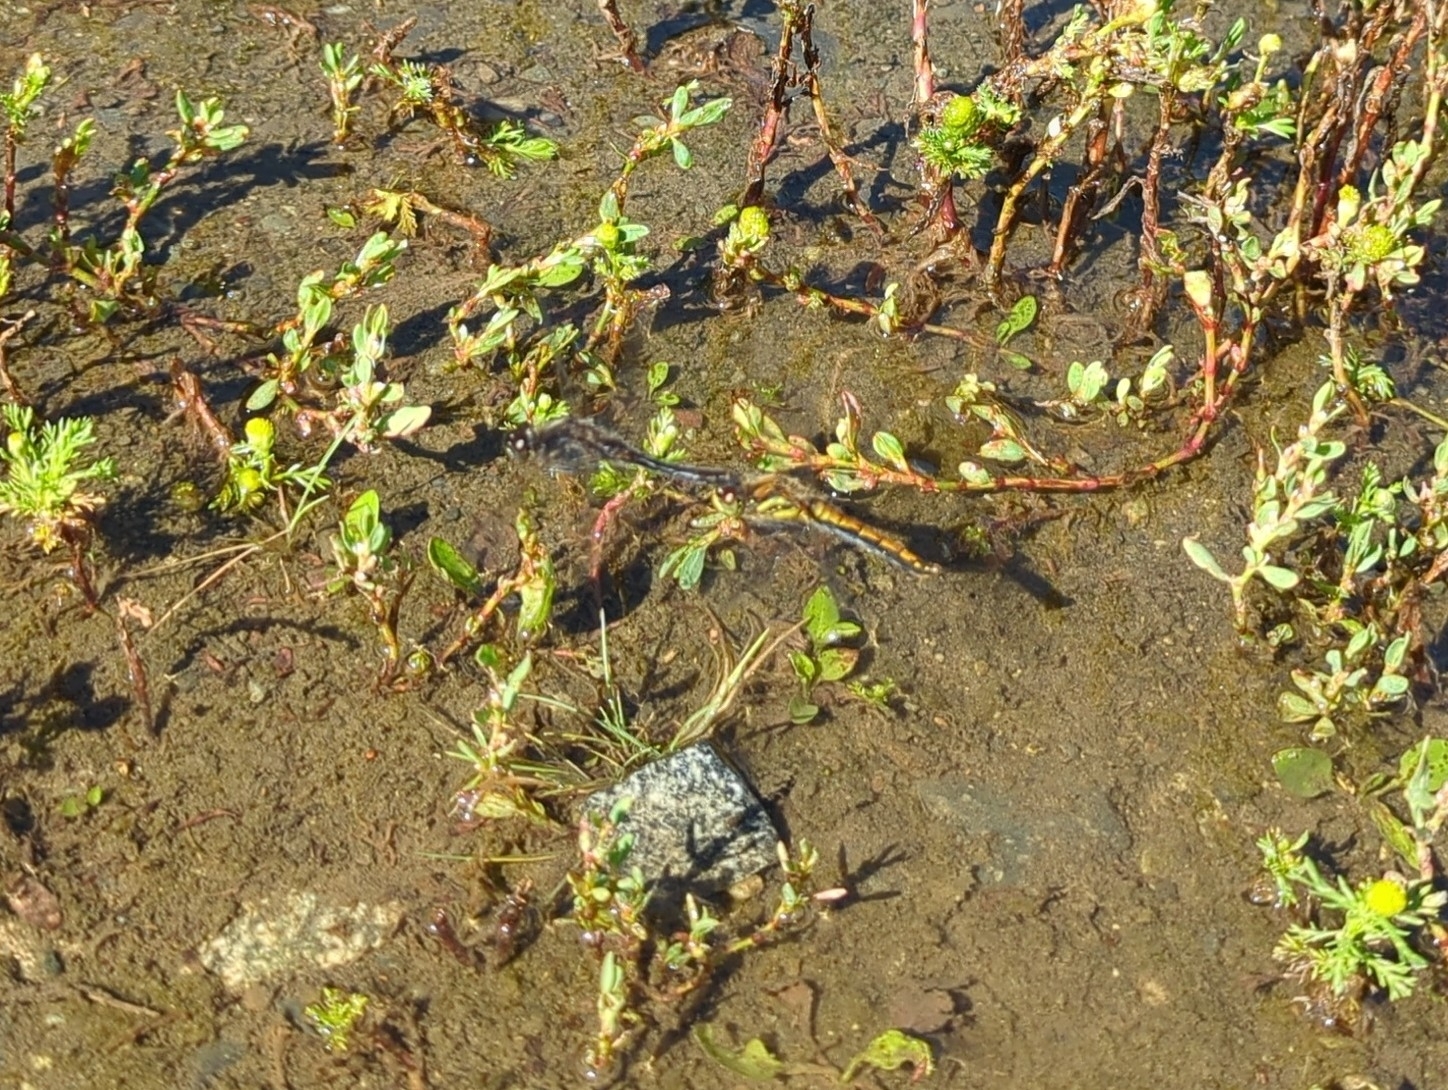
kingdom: Animalia
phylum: Arthropoda
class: Insecta
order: Odonata
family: Libellulidae
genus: Sympetrum
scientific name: Sympetrum danae
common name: Black darter
